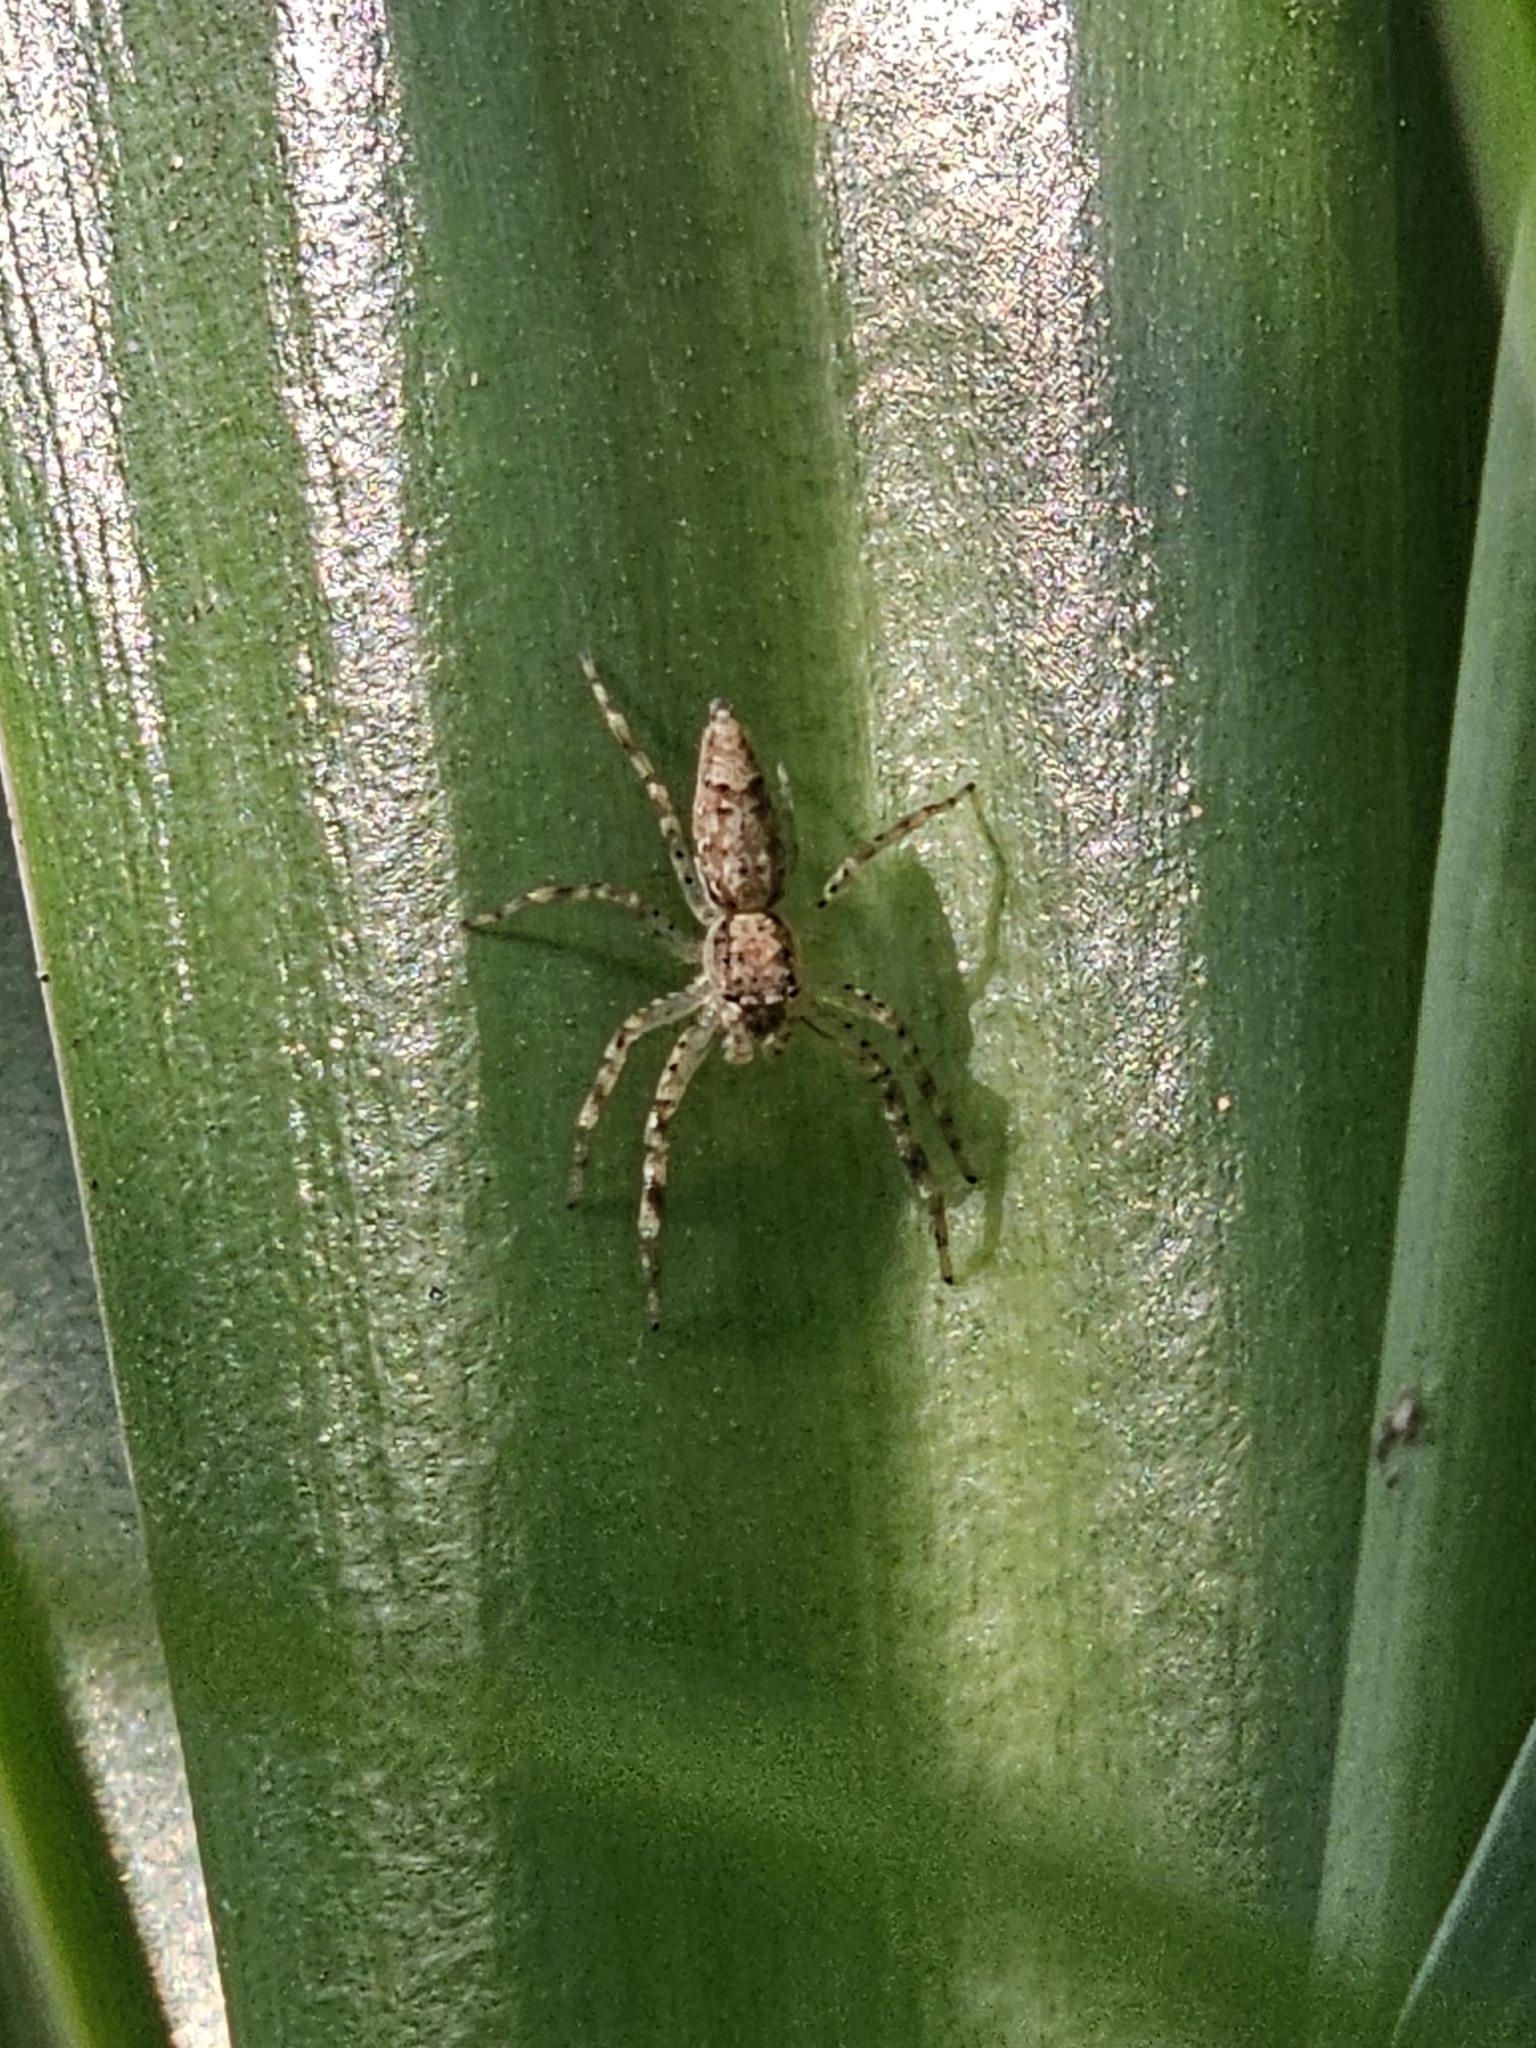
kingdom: Animalia
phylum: Arthropoda
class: Arachnida
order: Araneae
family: Salticidae
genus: Helpis
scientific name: Helpis minitabunda
